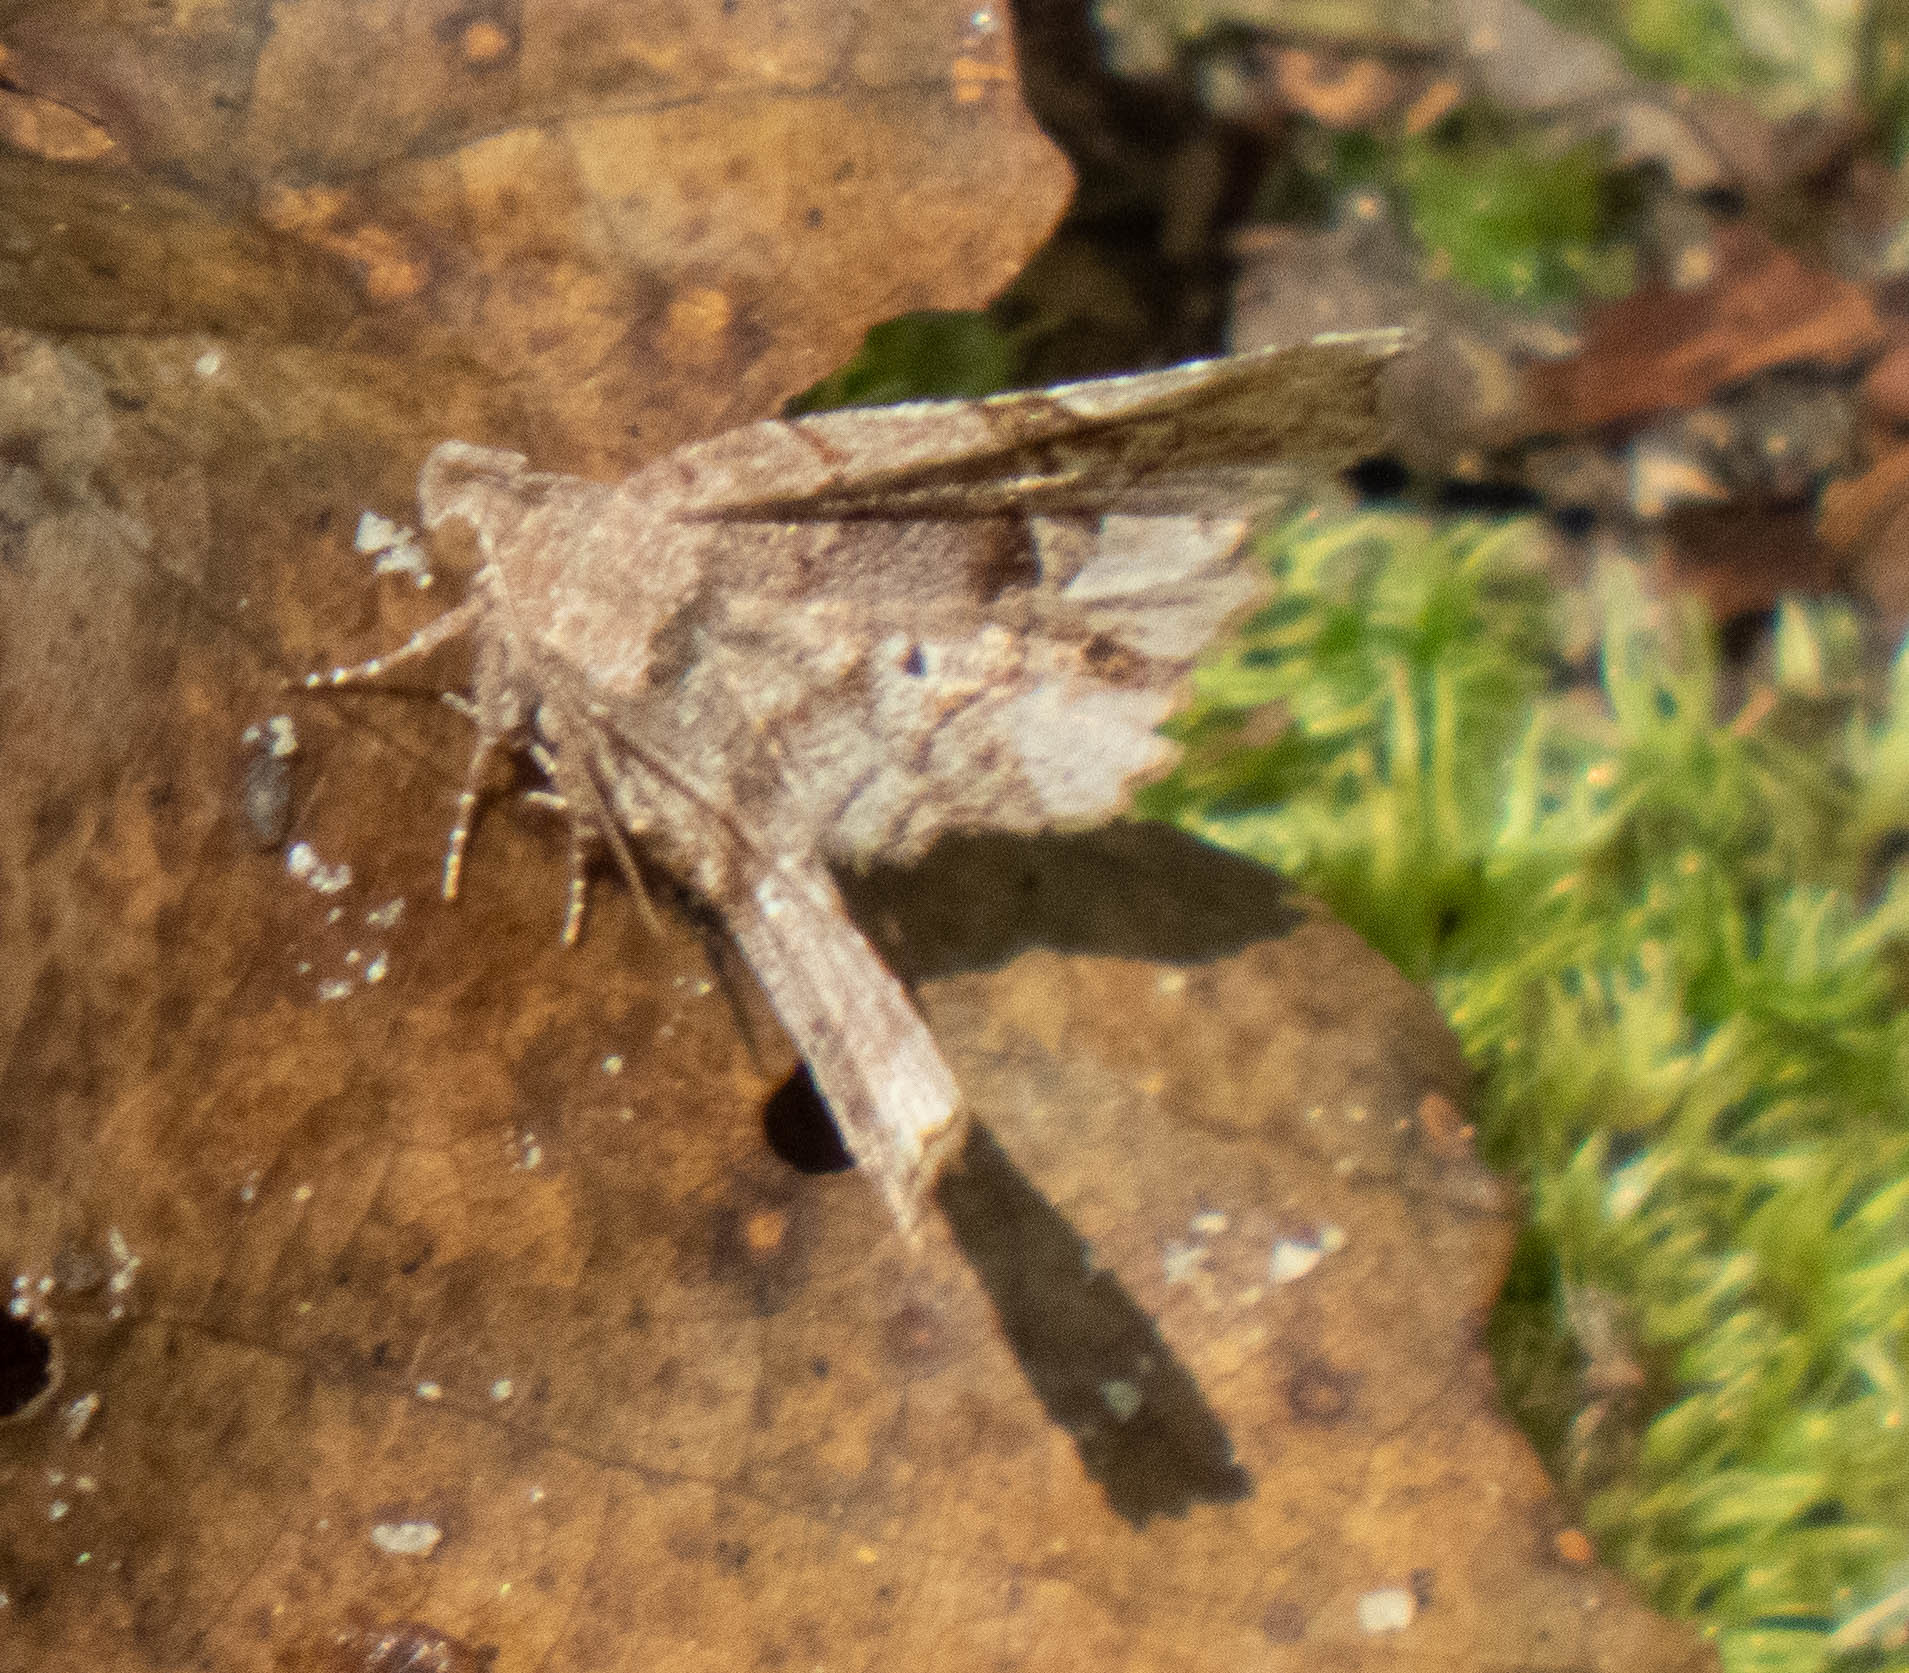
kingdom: Animalia
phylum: Arthropoda
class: Insecta
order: Lepidoptera
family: Erebidae
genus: Pangrapta
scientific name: Pangrapta decoralis
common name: Decorated owlet
